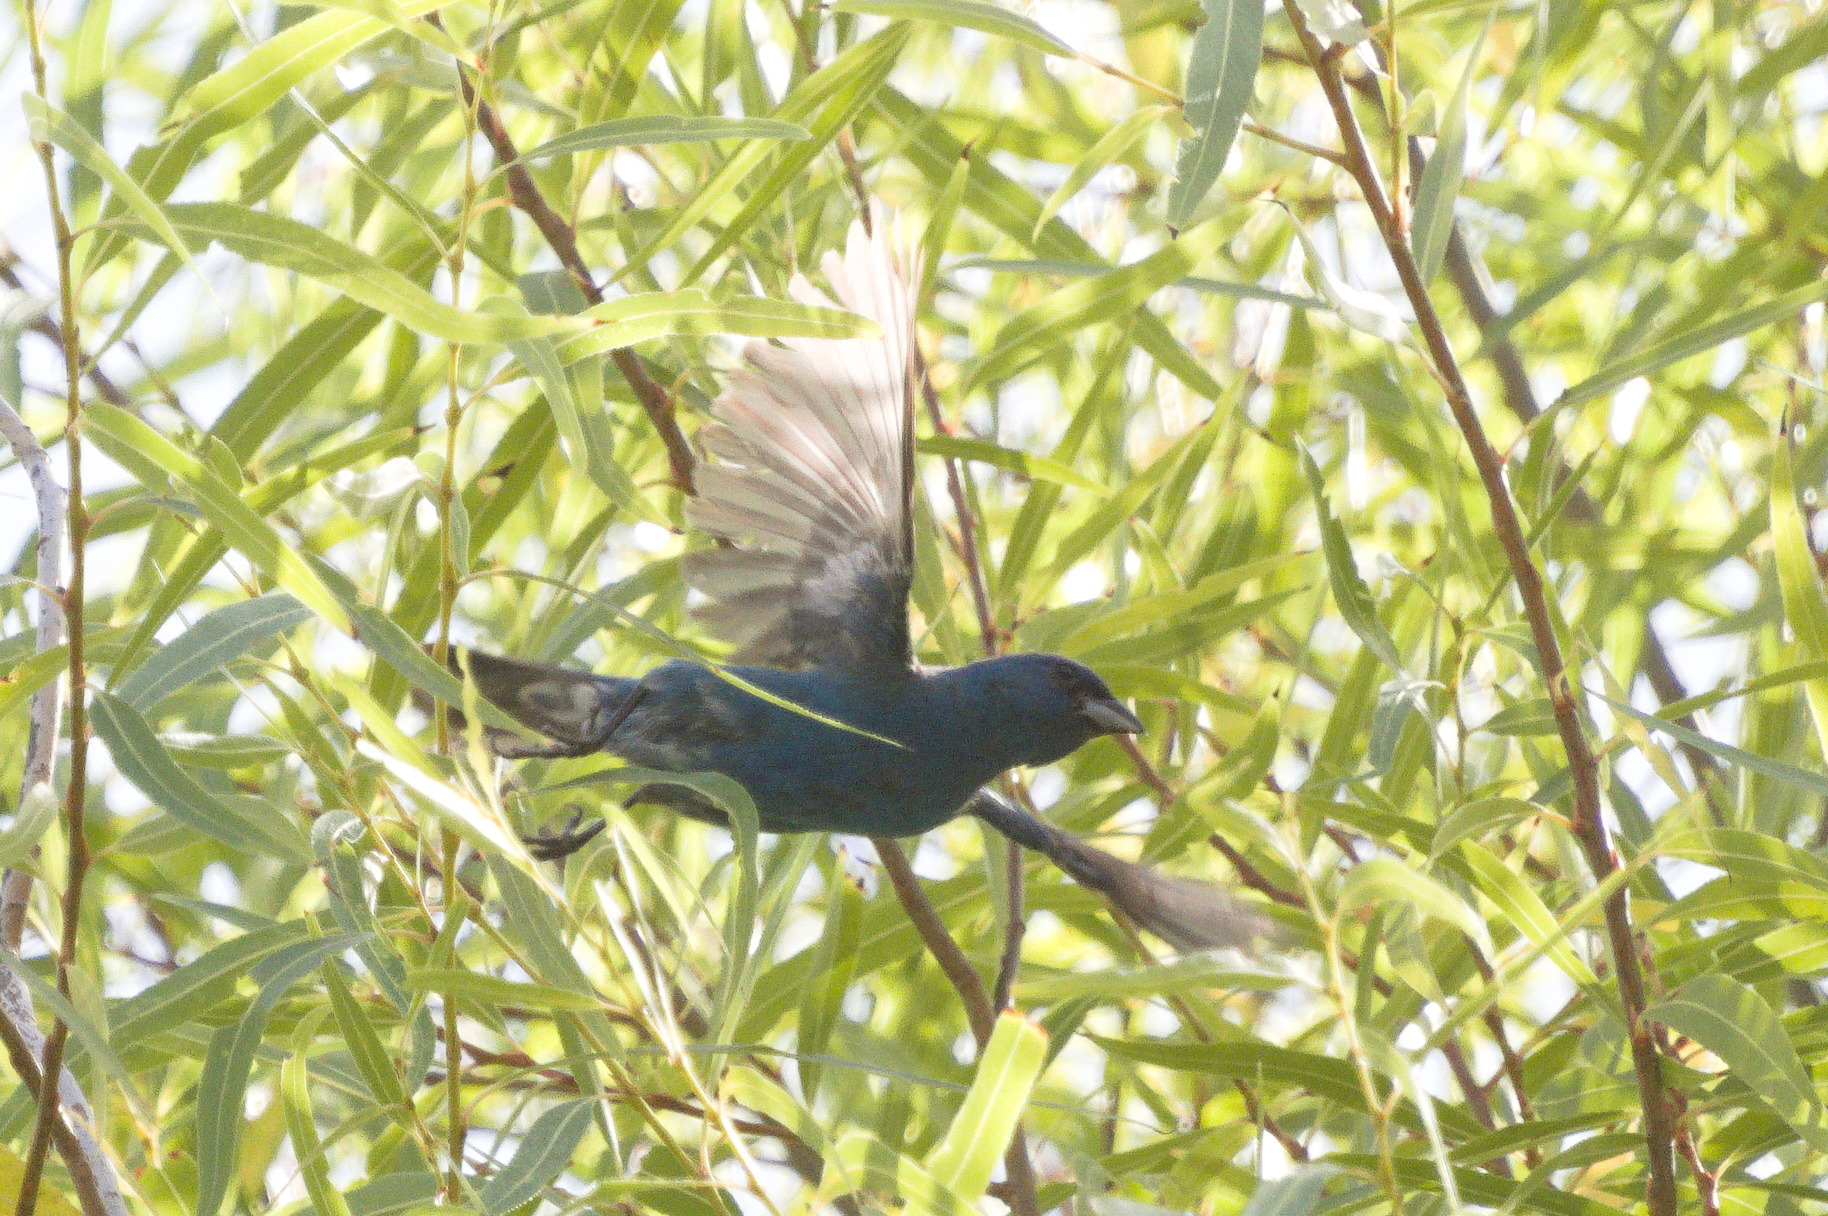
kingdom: Animalia
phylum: Chordata
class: Aves
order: Passeriformes
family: Cardinalidae
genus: Passerina
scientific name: Passerina cyanea
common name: Indigo bunting
